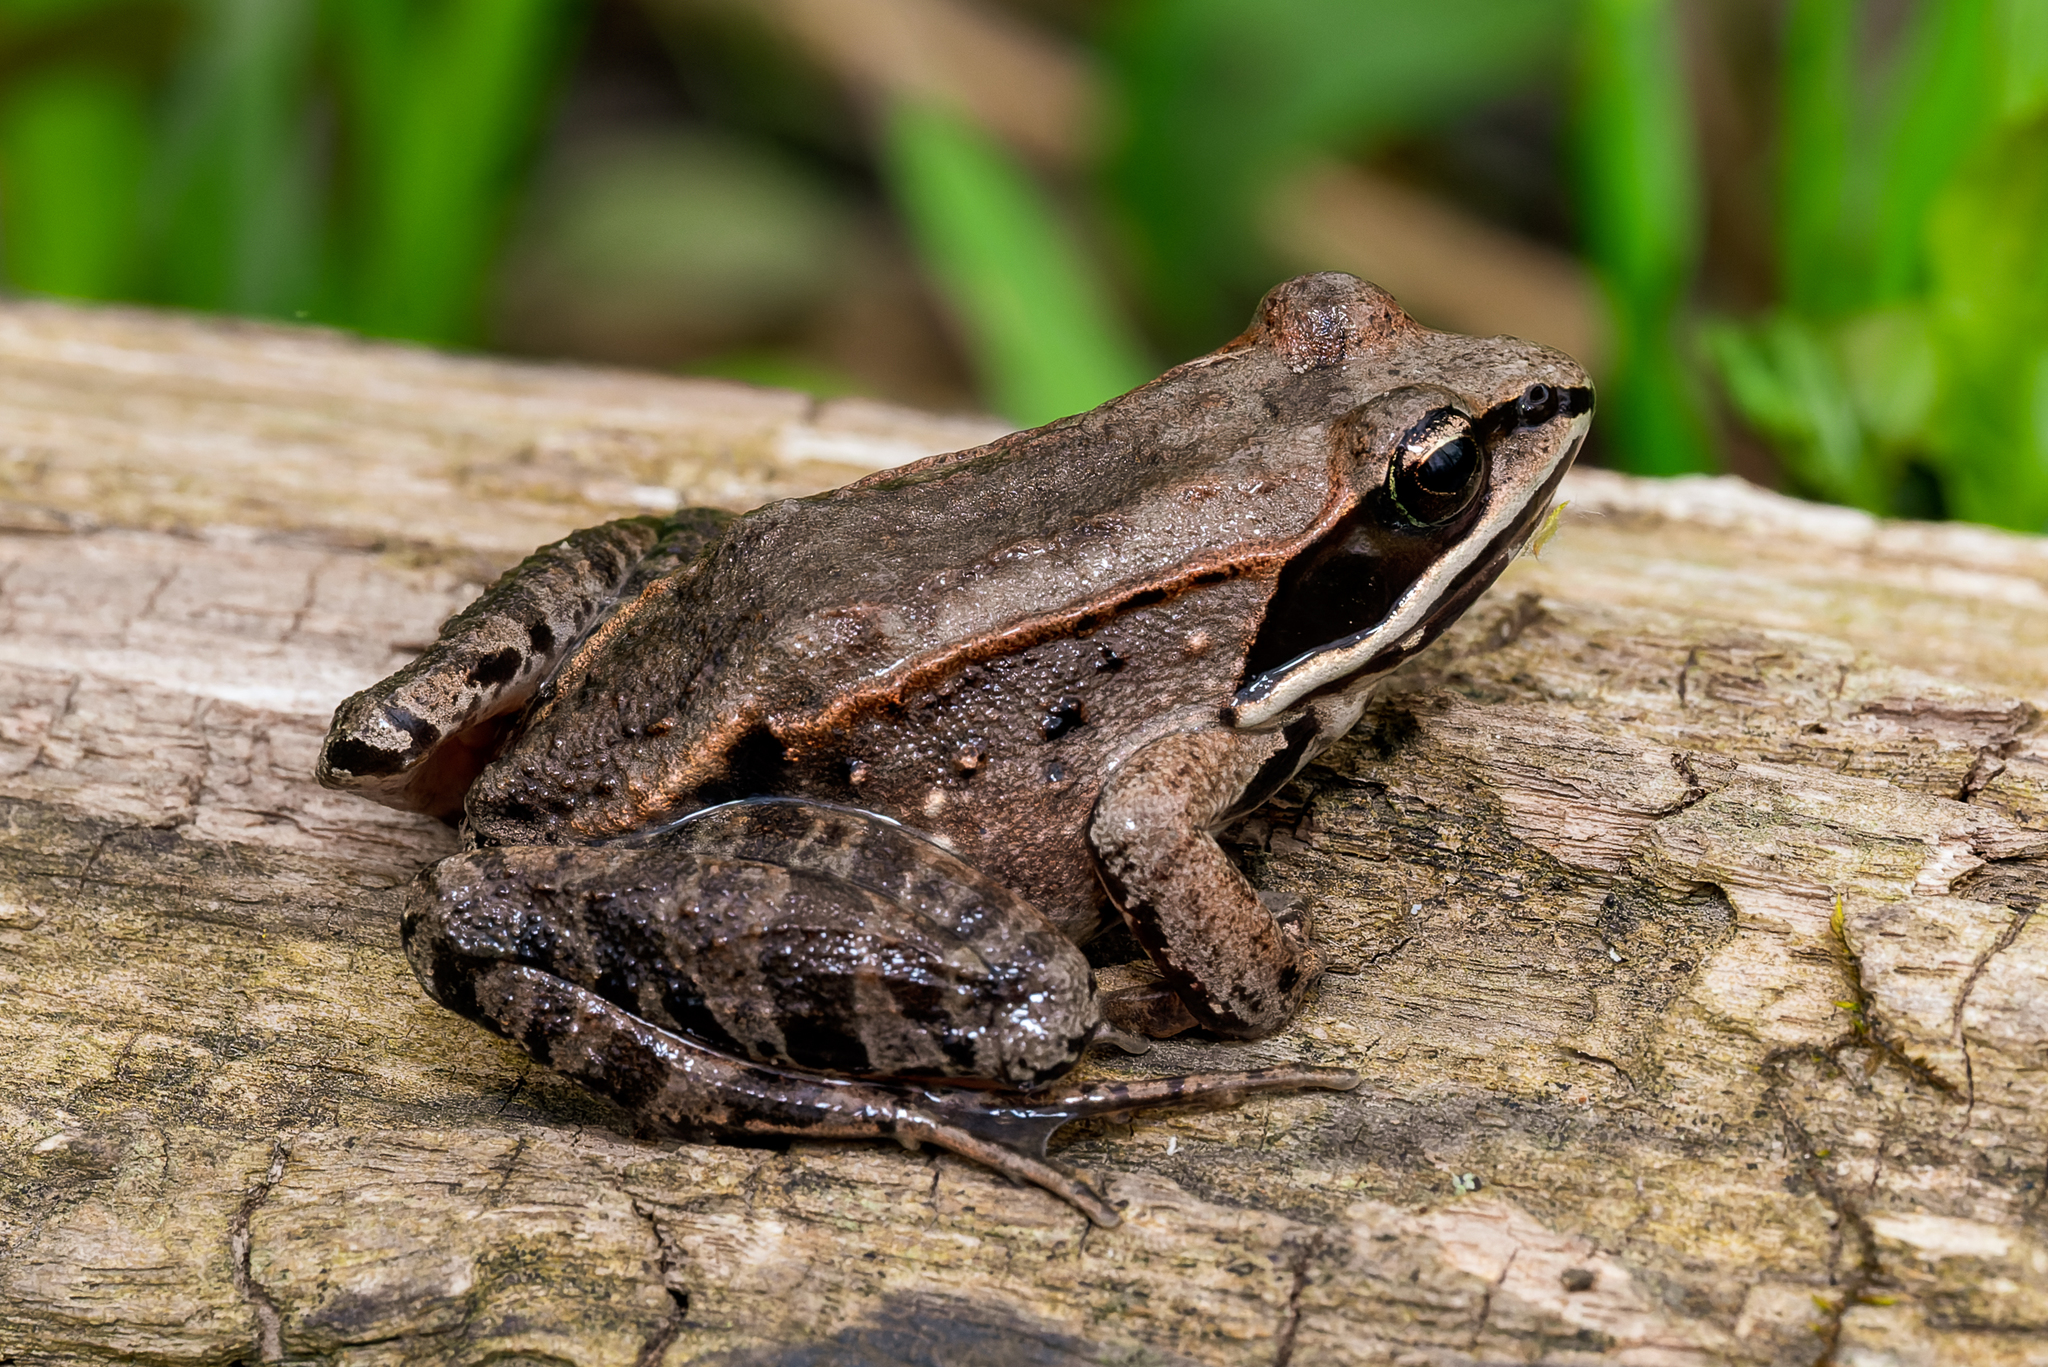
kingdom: Animalia
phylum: Chordata
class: Amphibia
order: Anura
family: Ranidae
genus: Lithobates
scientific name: Lithobates sylvaticus
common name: Wood frog
